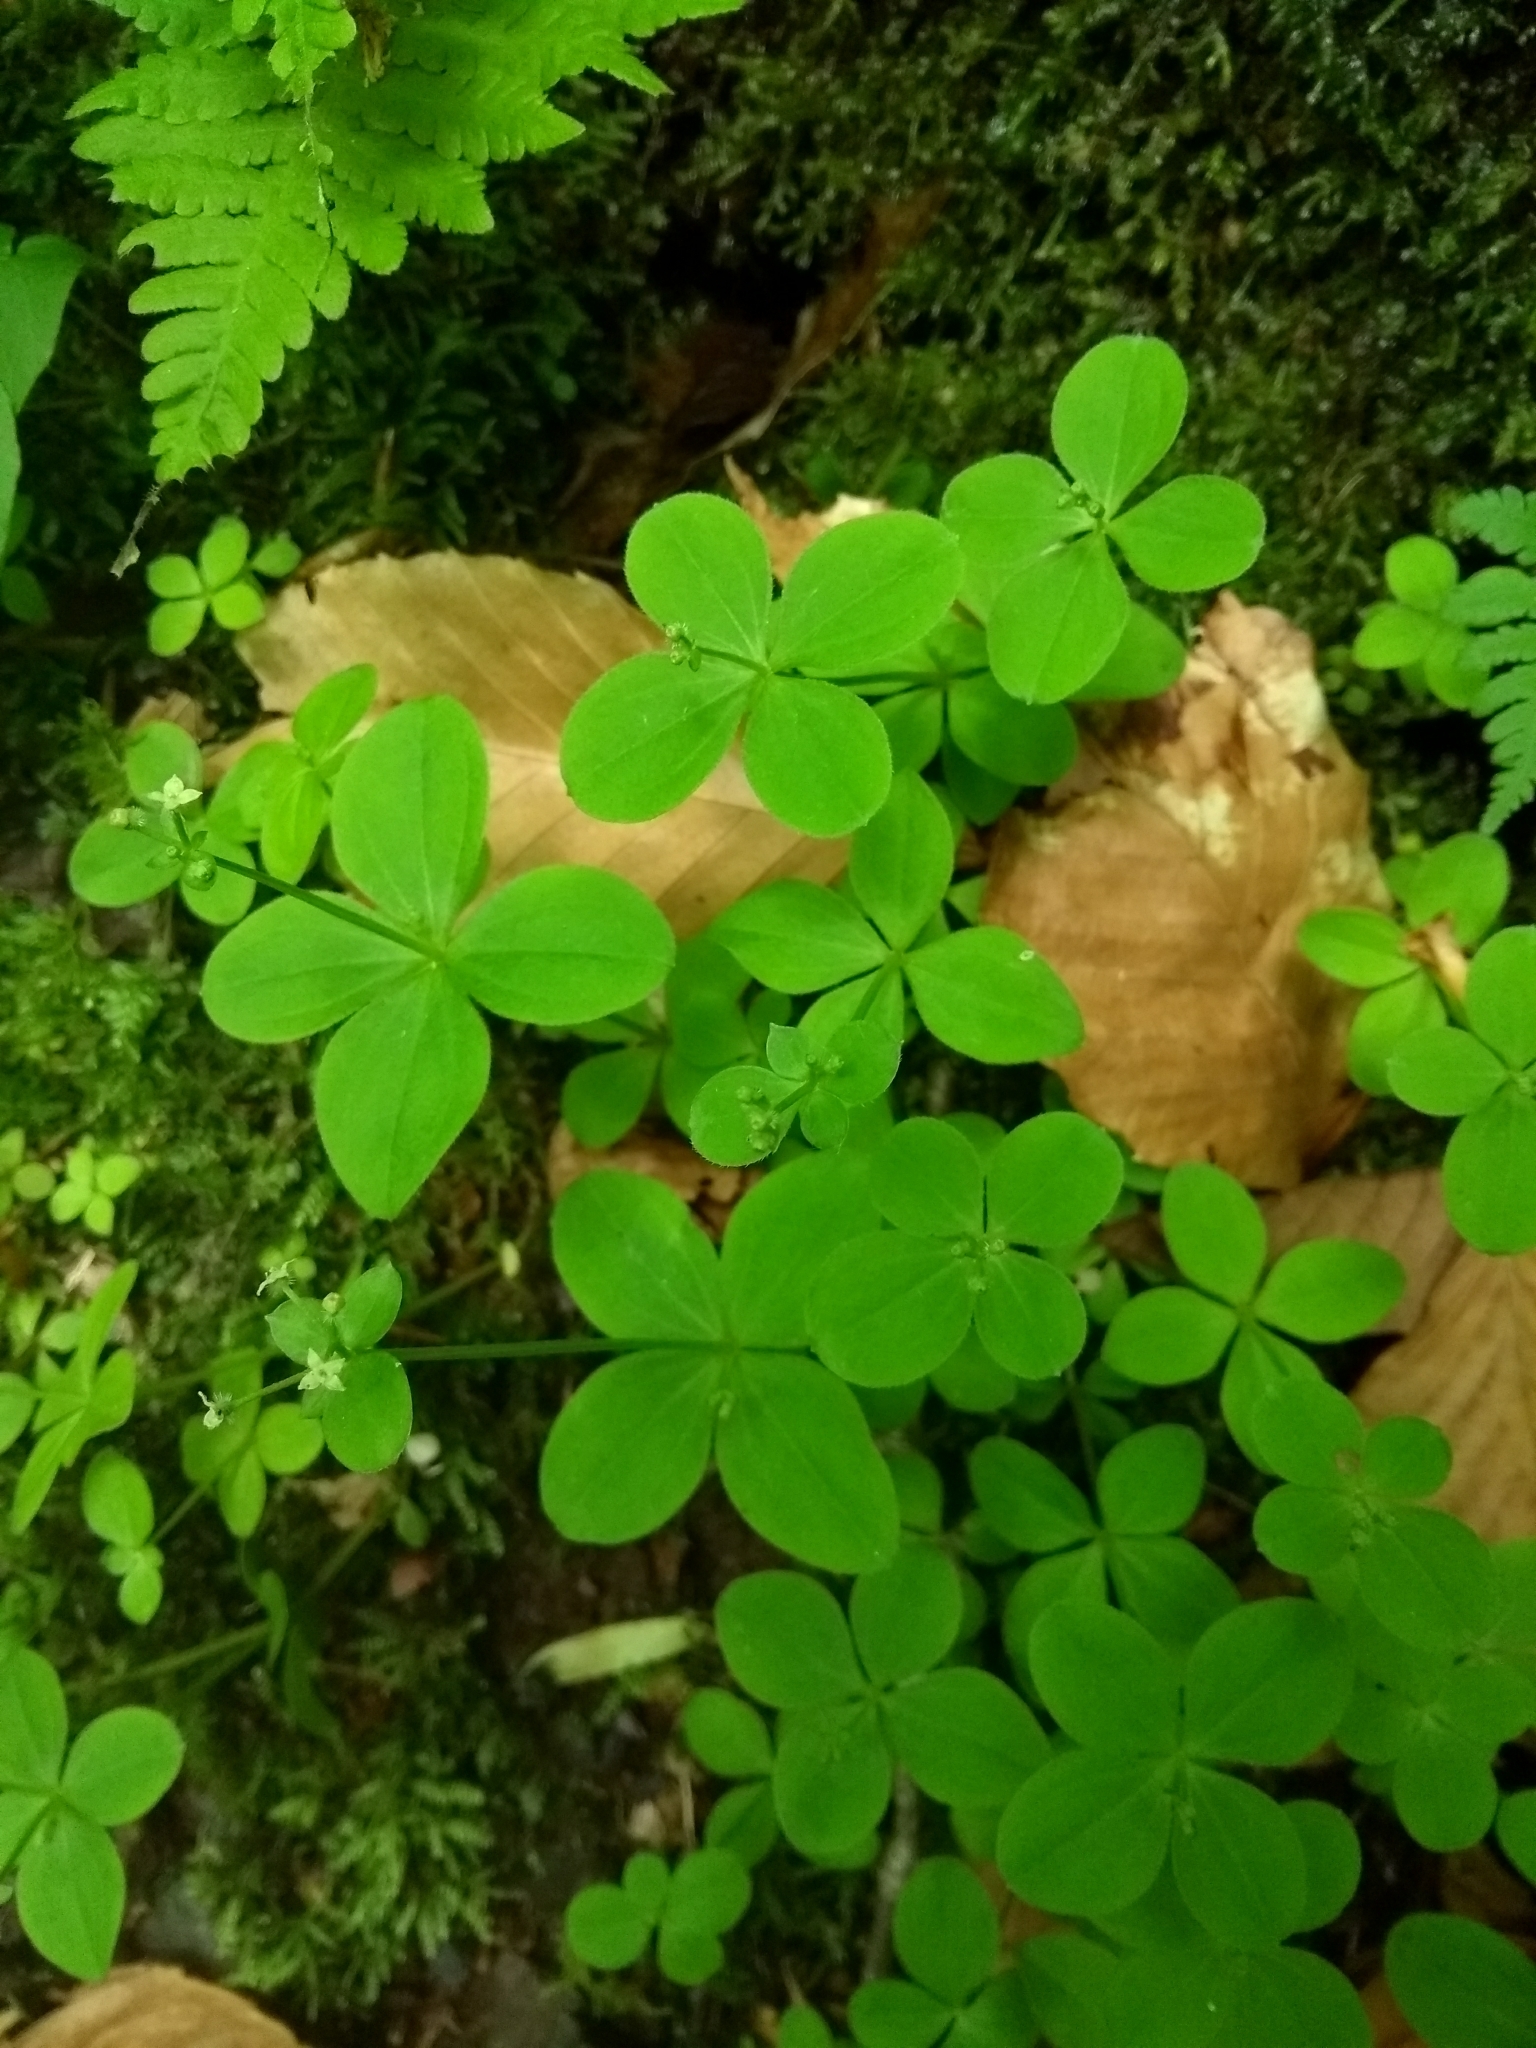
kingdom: Plantae
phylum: Tracheophyta
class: Magnoliopsida
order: Gentianales
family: Rubiaceae
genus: Galium
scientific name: Galium kamtschaticum
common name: Boreal bedstraw
